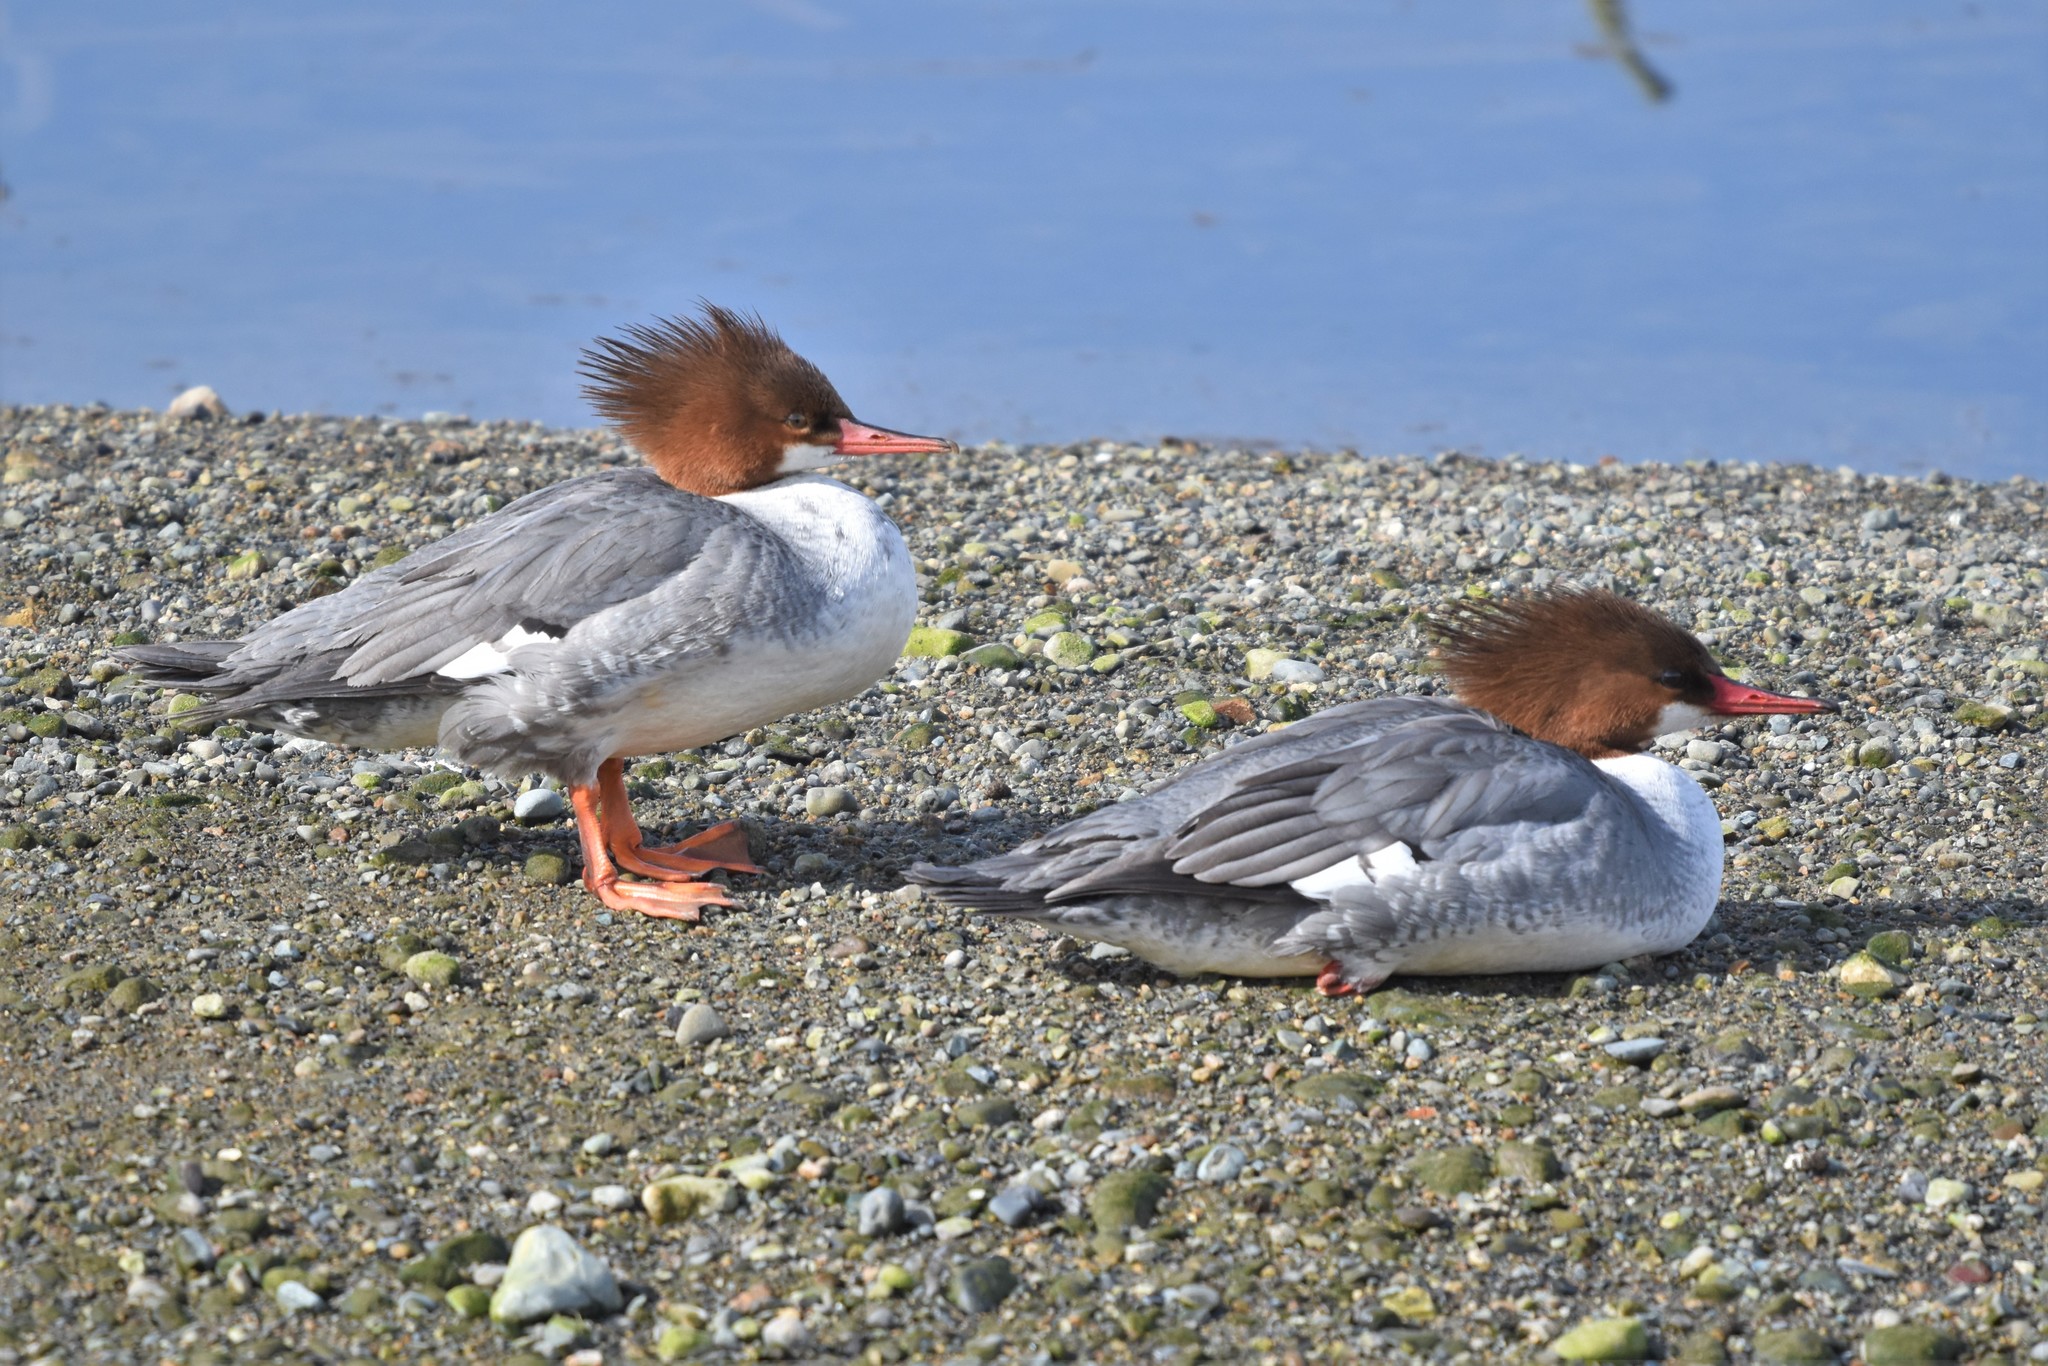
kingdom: Animalia
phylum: Chordata
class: Aves
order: Anseriformes
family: Anatidae
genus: Mergus
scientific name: Mergus merganser
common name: Common merganser
